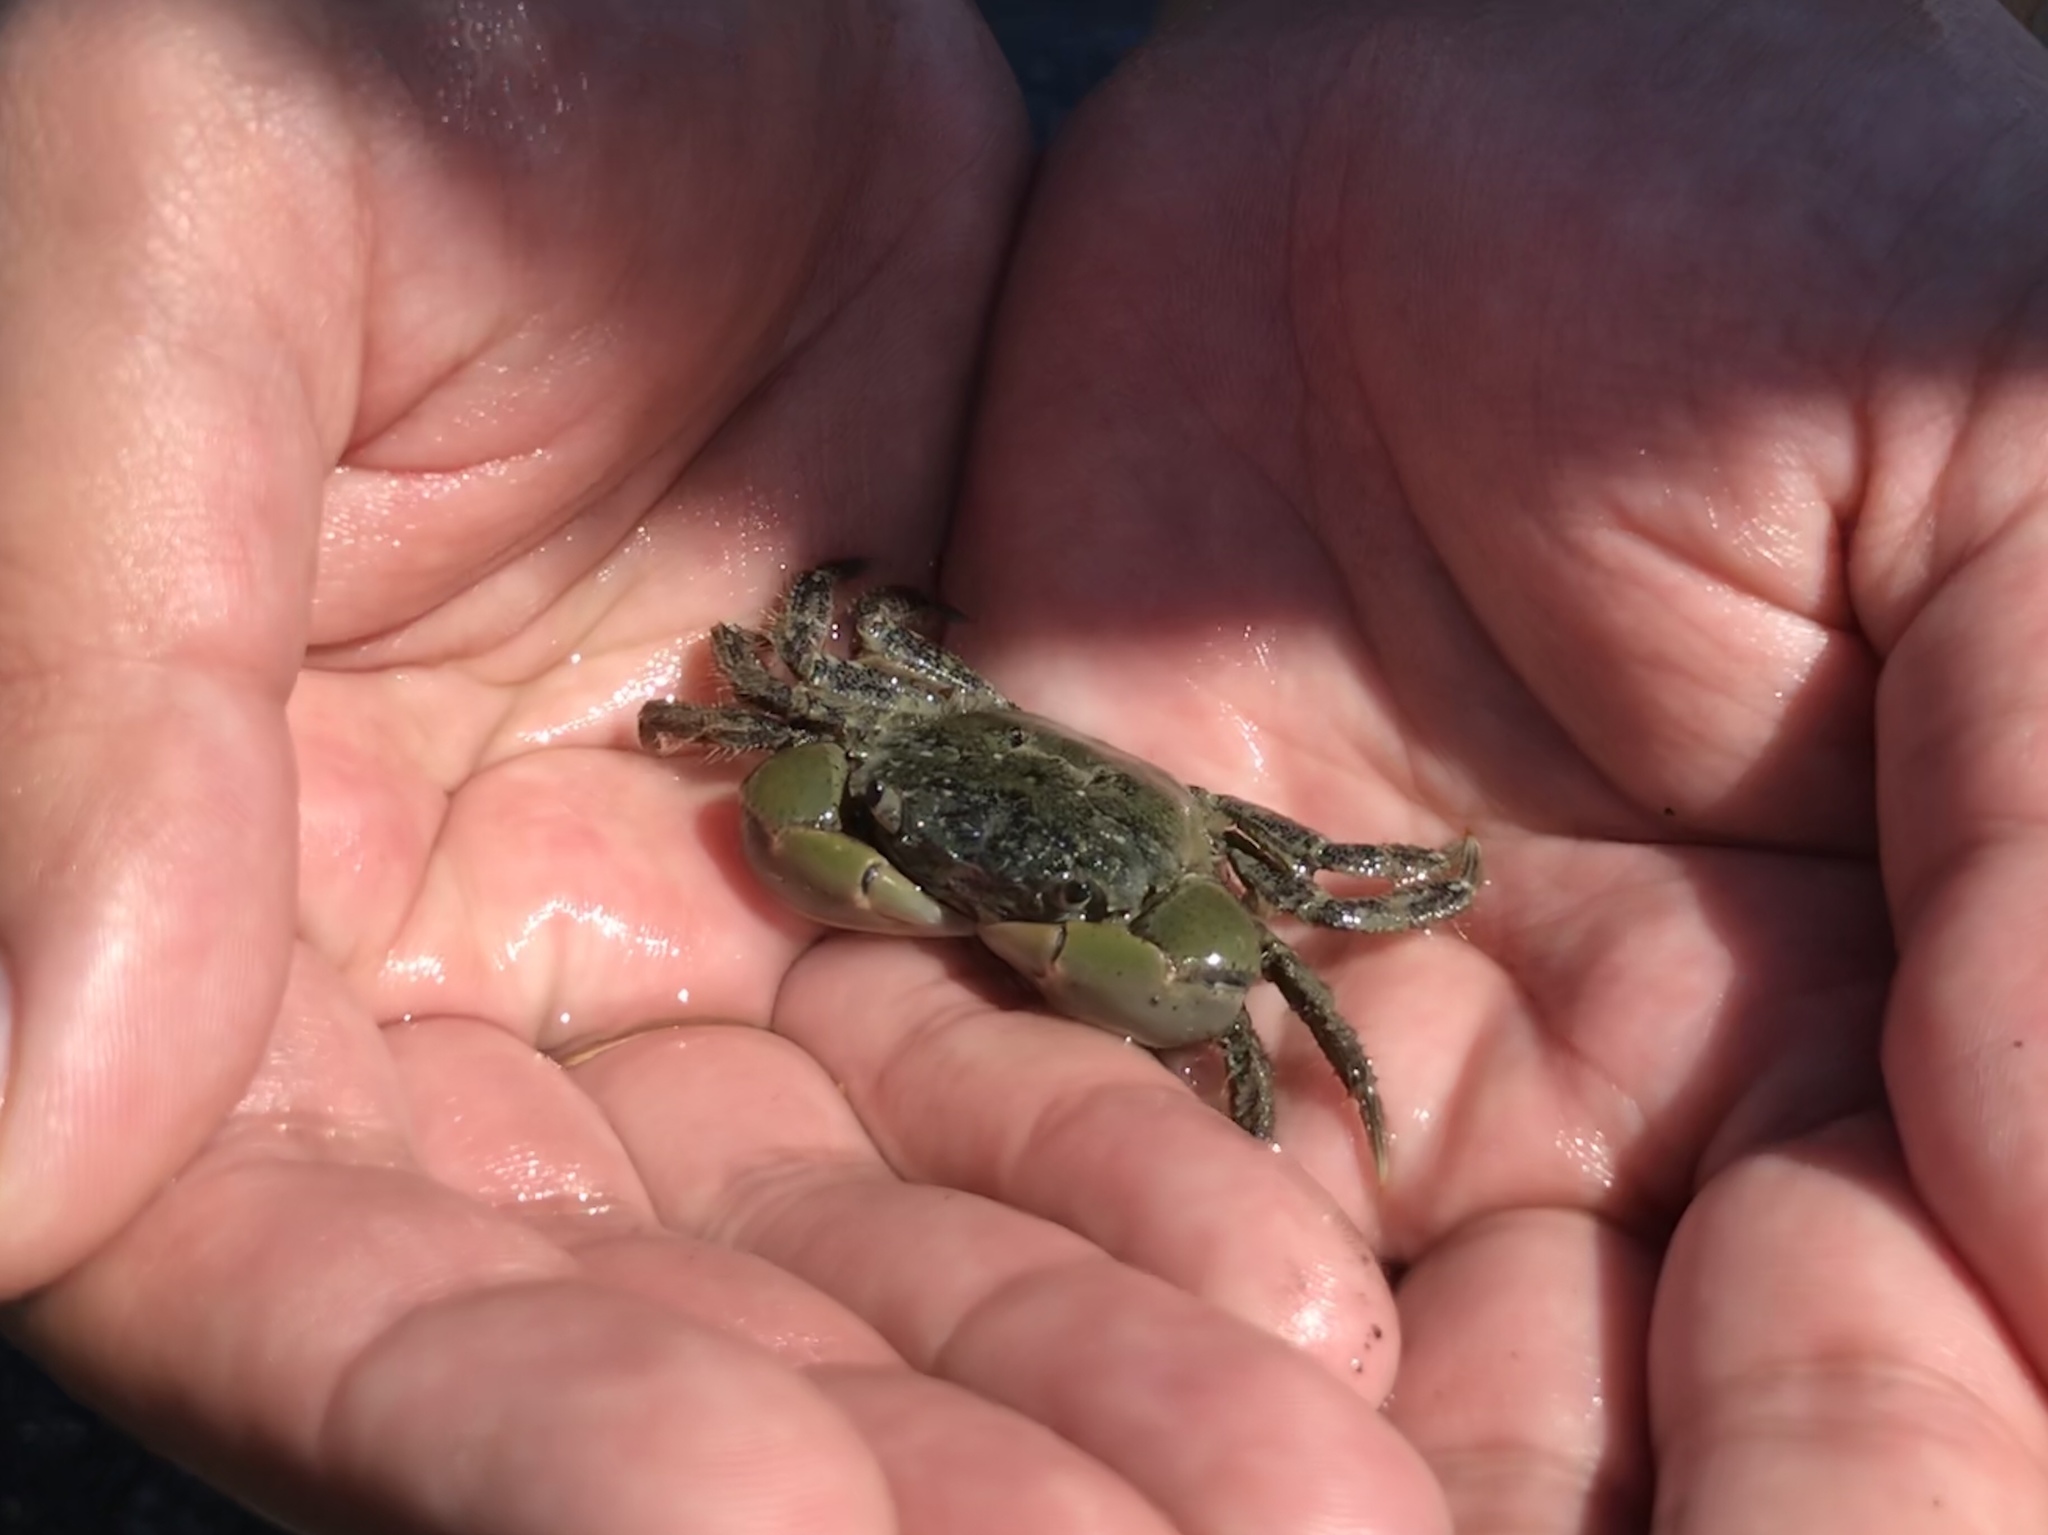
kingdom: Animalia
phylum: Arthropoda
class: Malacostraca
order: Decapoda
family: Varunidae
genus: Hemigrapsus
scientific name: Hemigrapsus oregonensis
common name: Yellow shore crab
